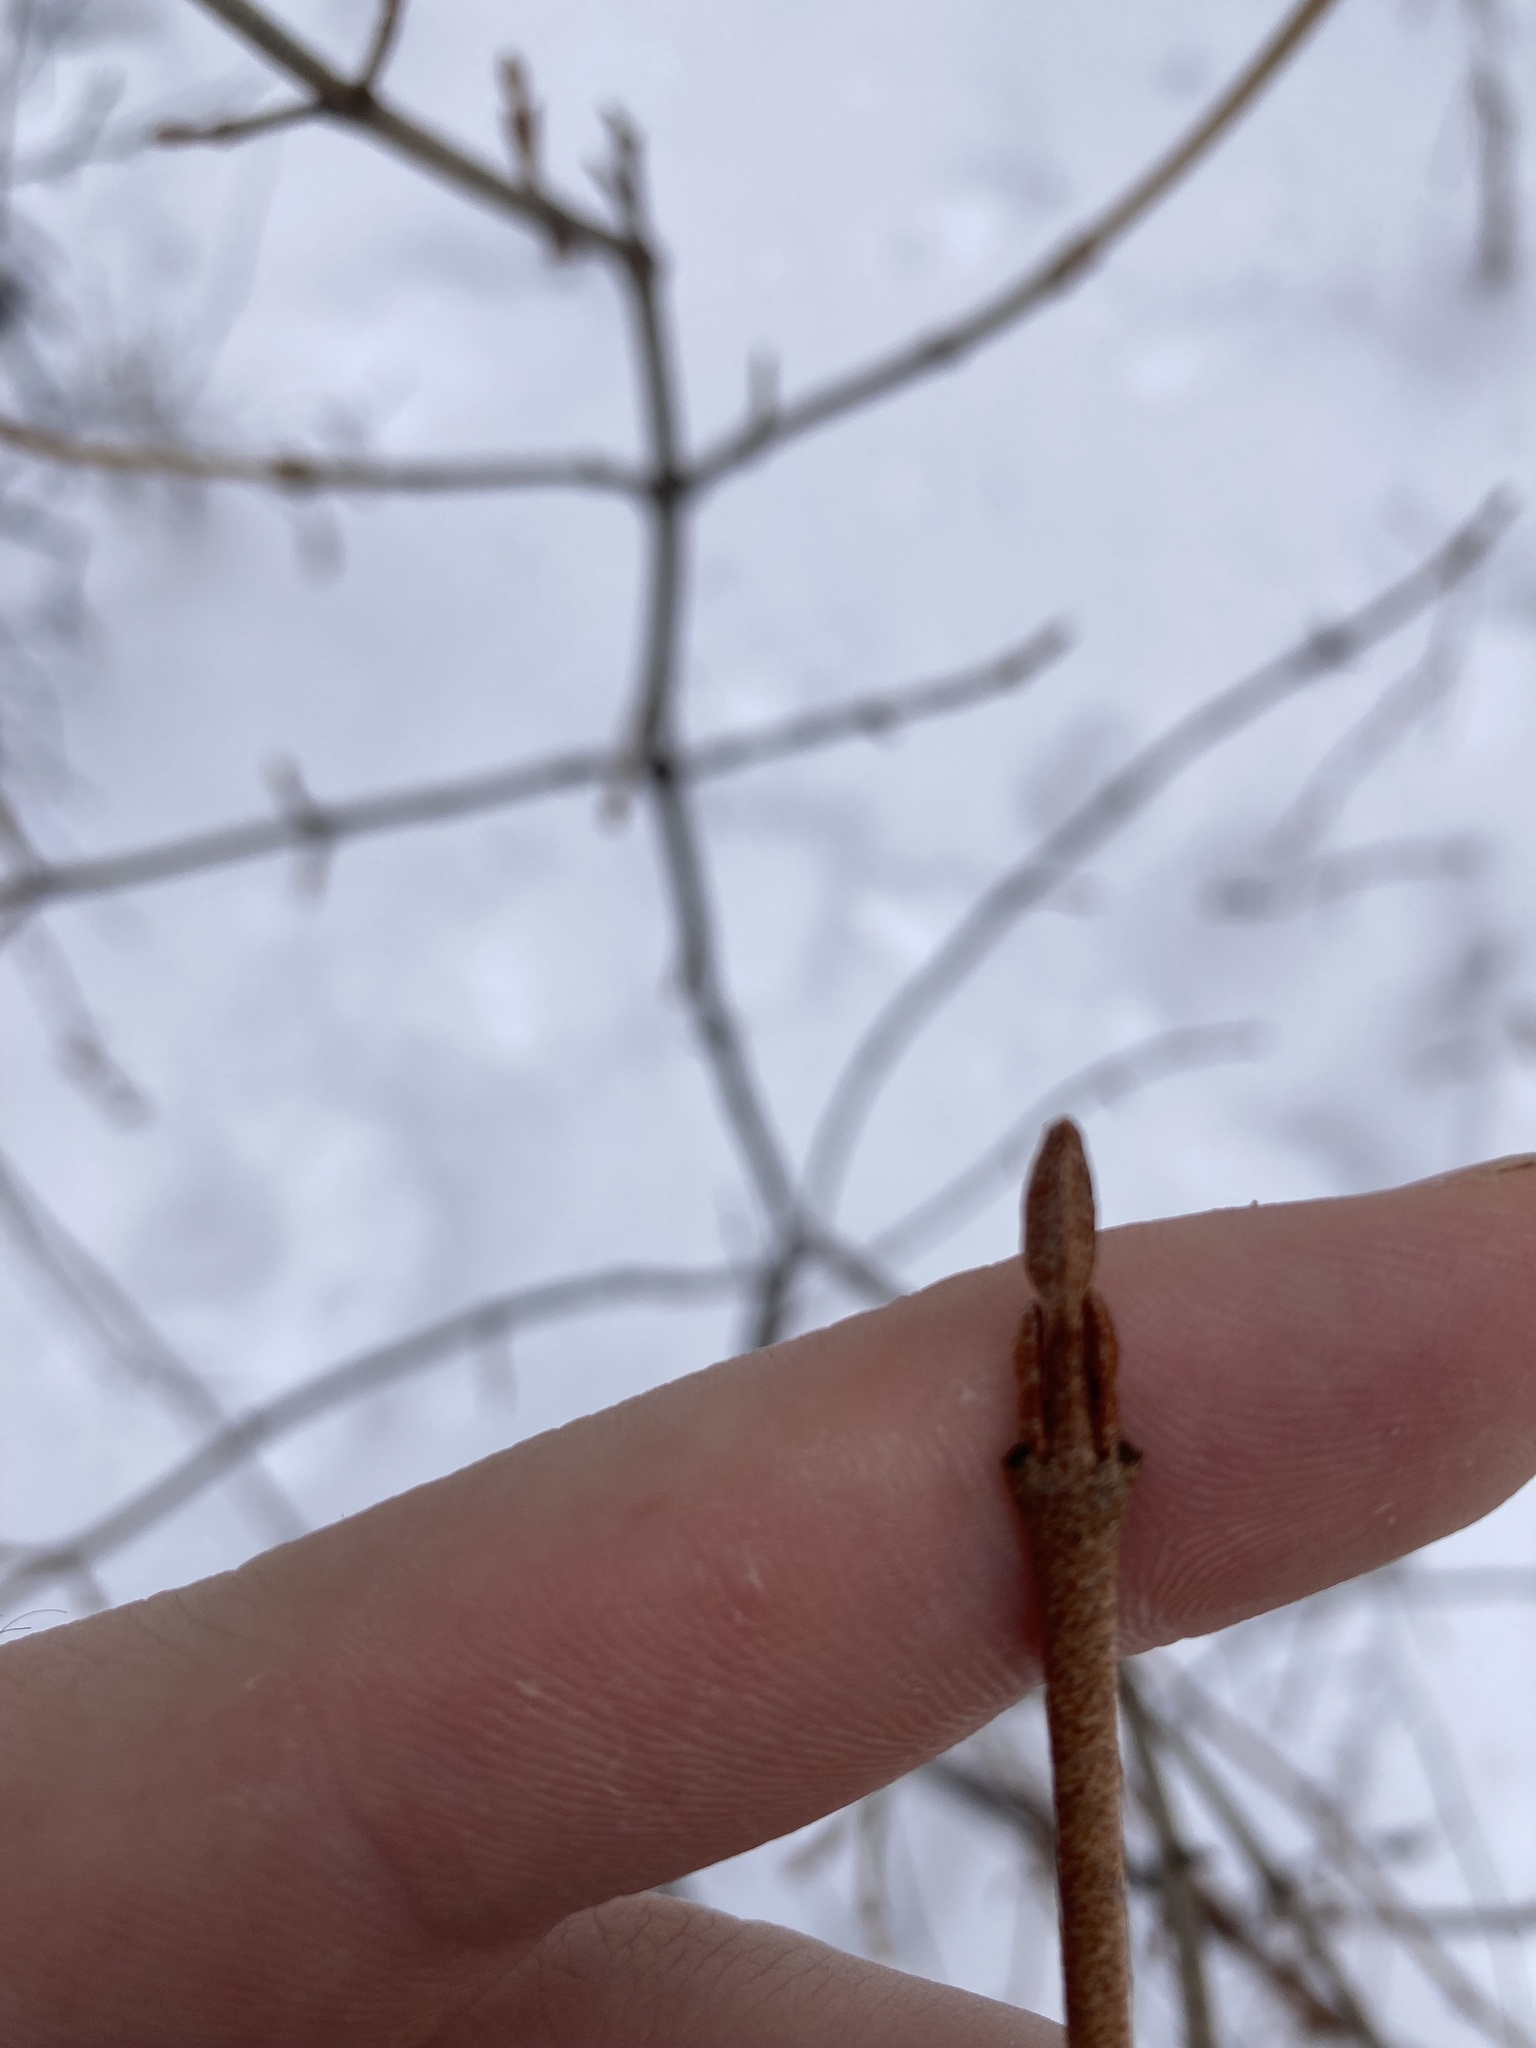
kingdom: Plantae
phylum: Tracheophyta
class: Magnoliopsida
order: Rosales
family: Elaeagnaceae
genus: Shepherdia
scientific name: Shepherdia canadensis
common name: Soapberry
